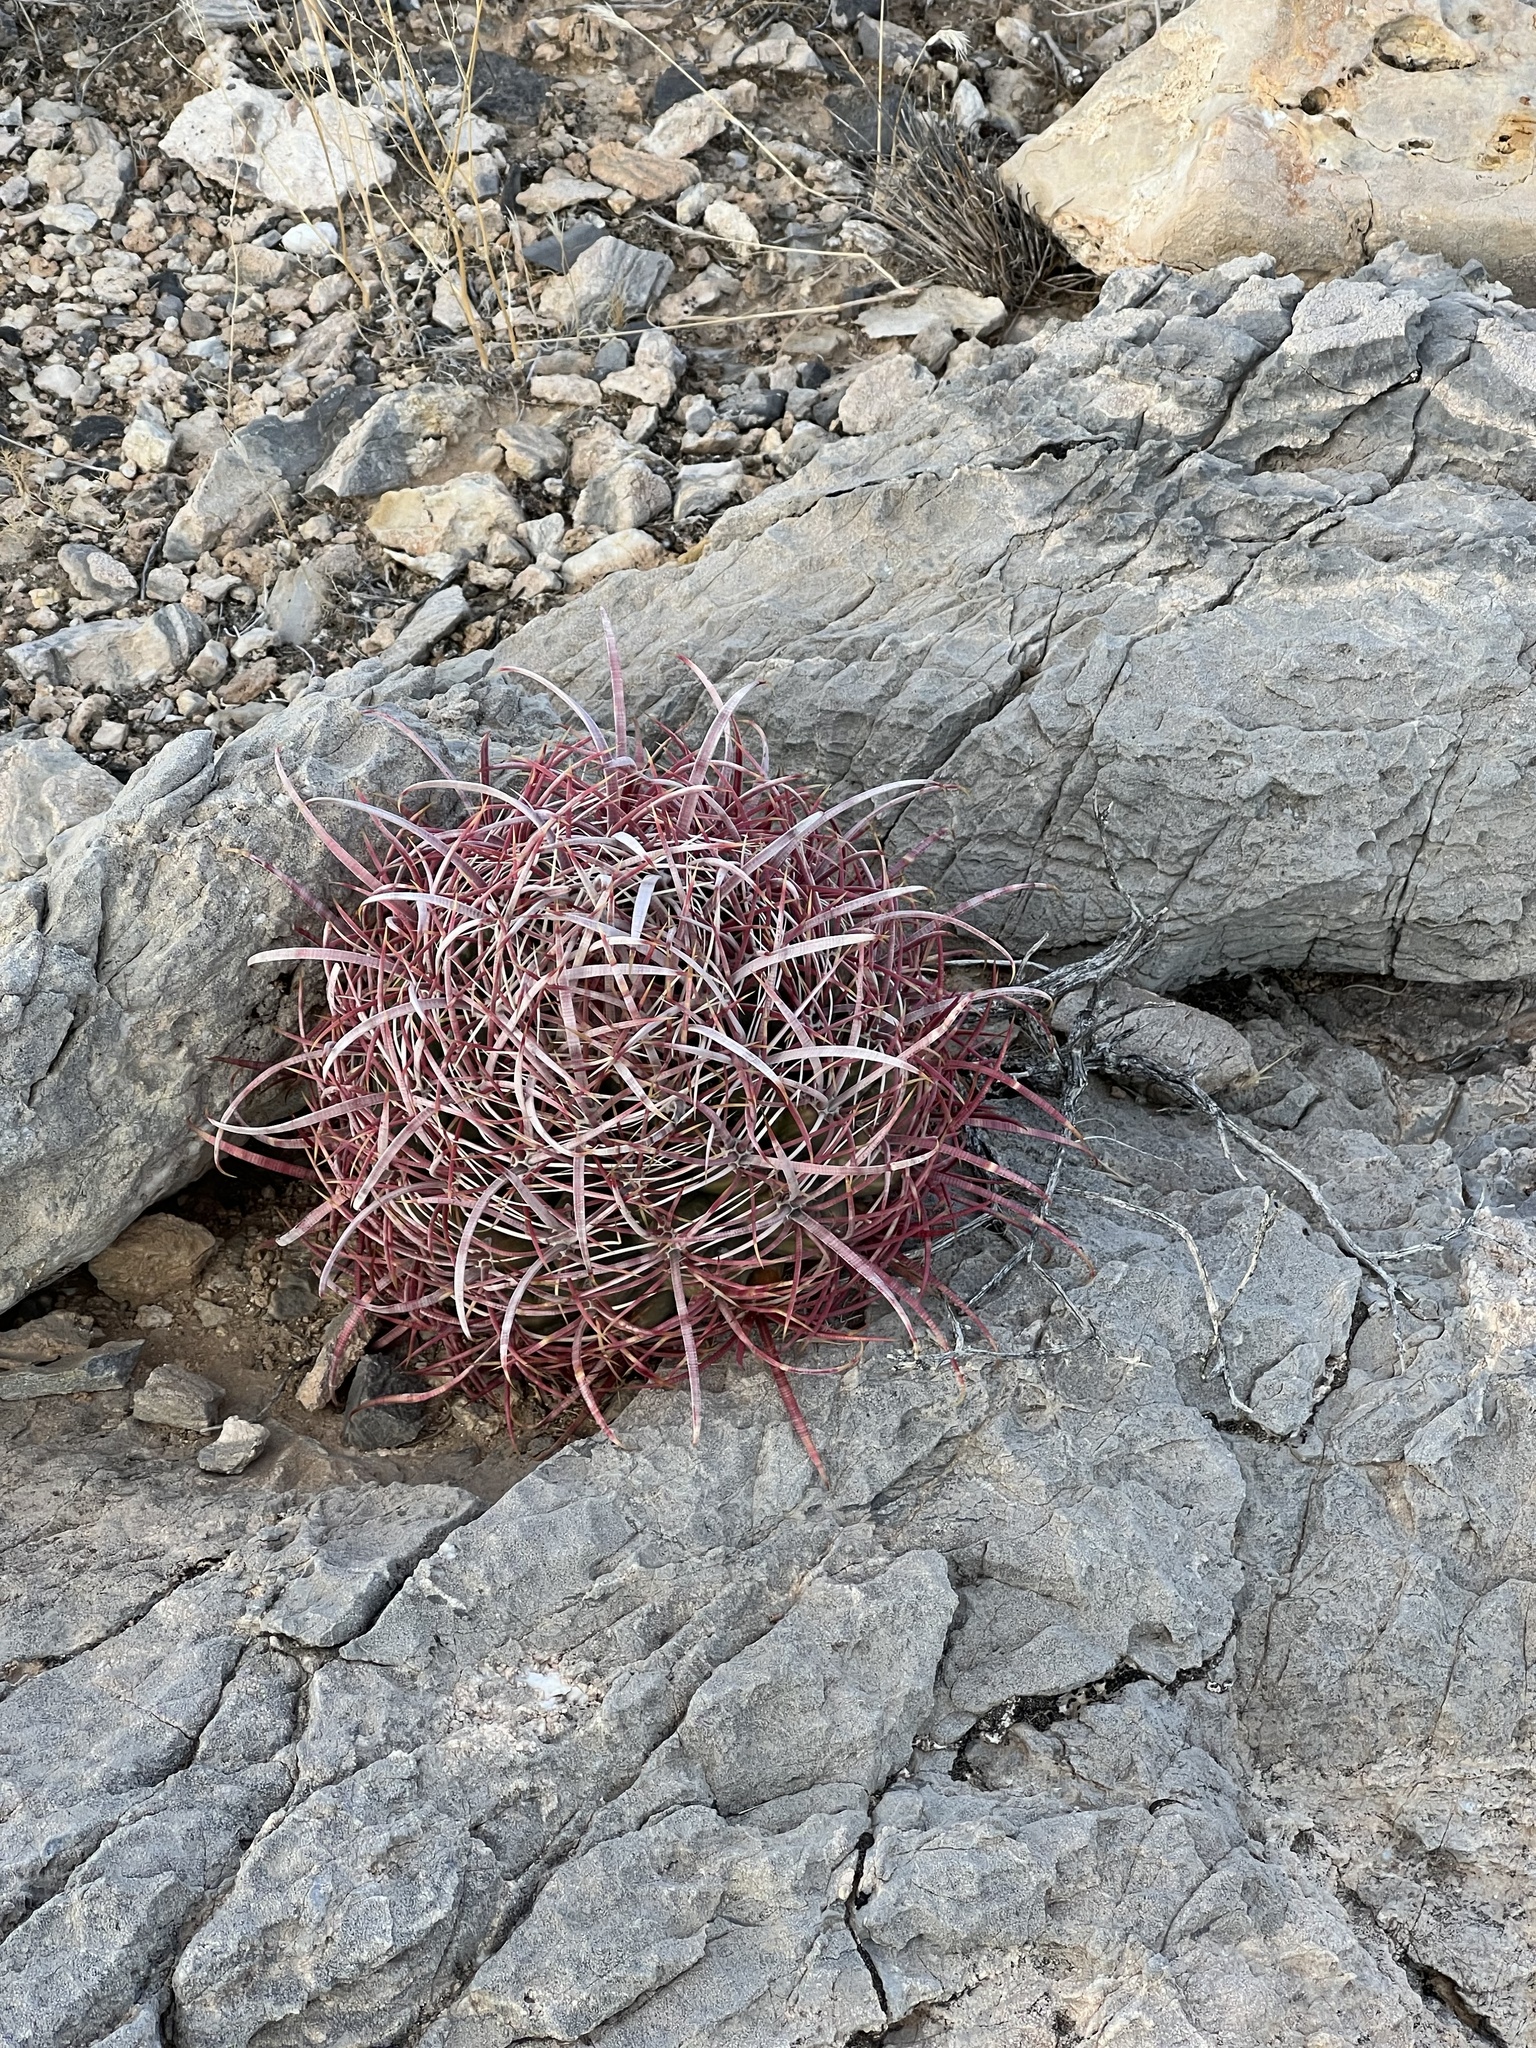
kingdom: Plantae
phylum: Tracheophyta
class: Magnoliopsida
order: Caryophyllales
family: Cactaceae
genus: Ferocactus
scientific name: Ferocactus cylindraceus
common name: California barrel cactus
